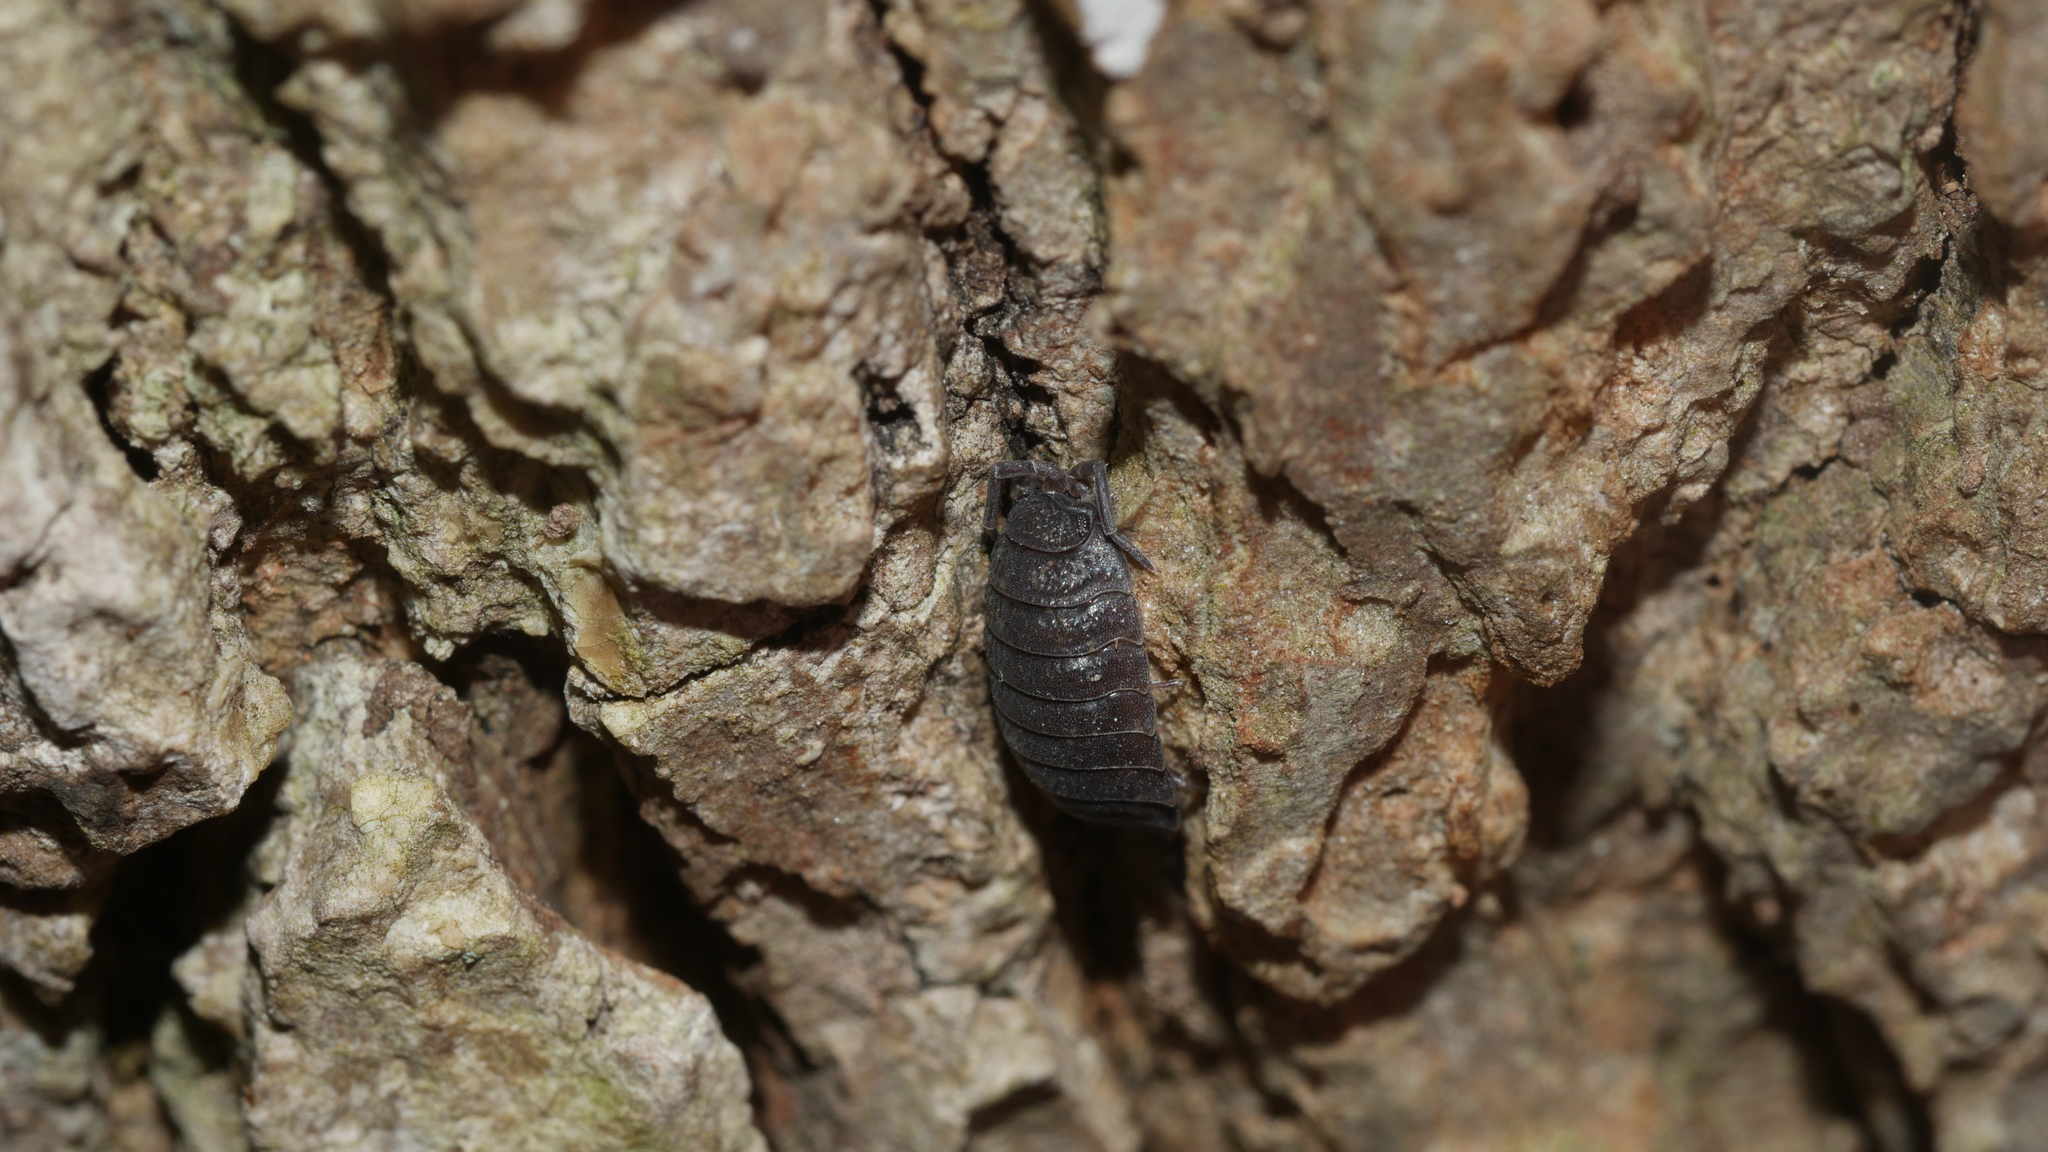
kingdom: Animalia
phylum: Arthropoda
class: Malacostraca
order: Isopoda
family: Porcellionidae
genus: Porcellio
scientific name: Porcellio scaber
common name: Common rough woodlouse
